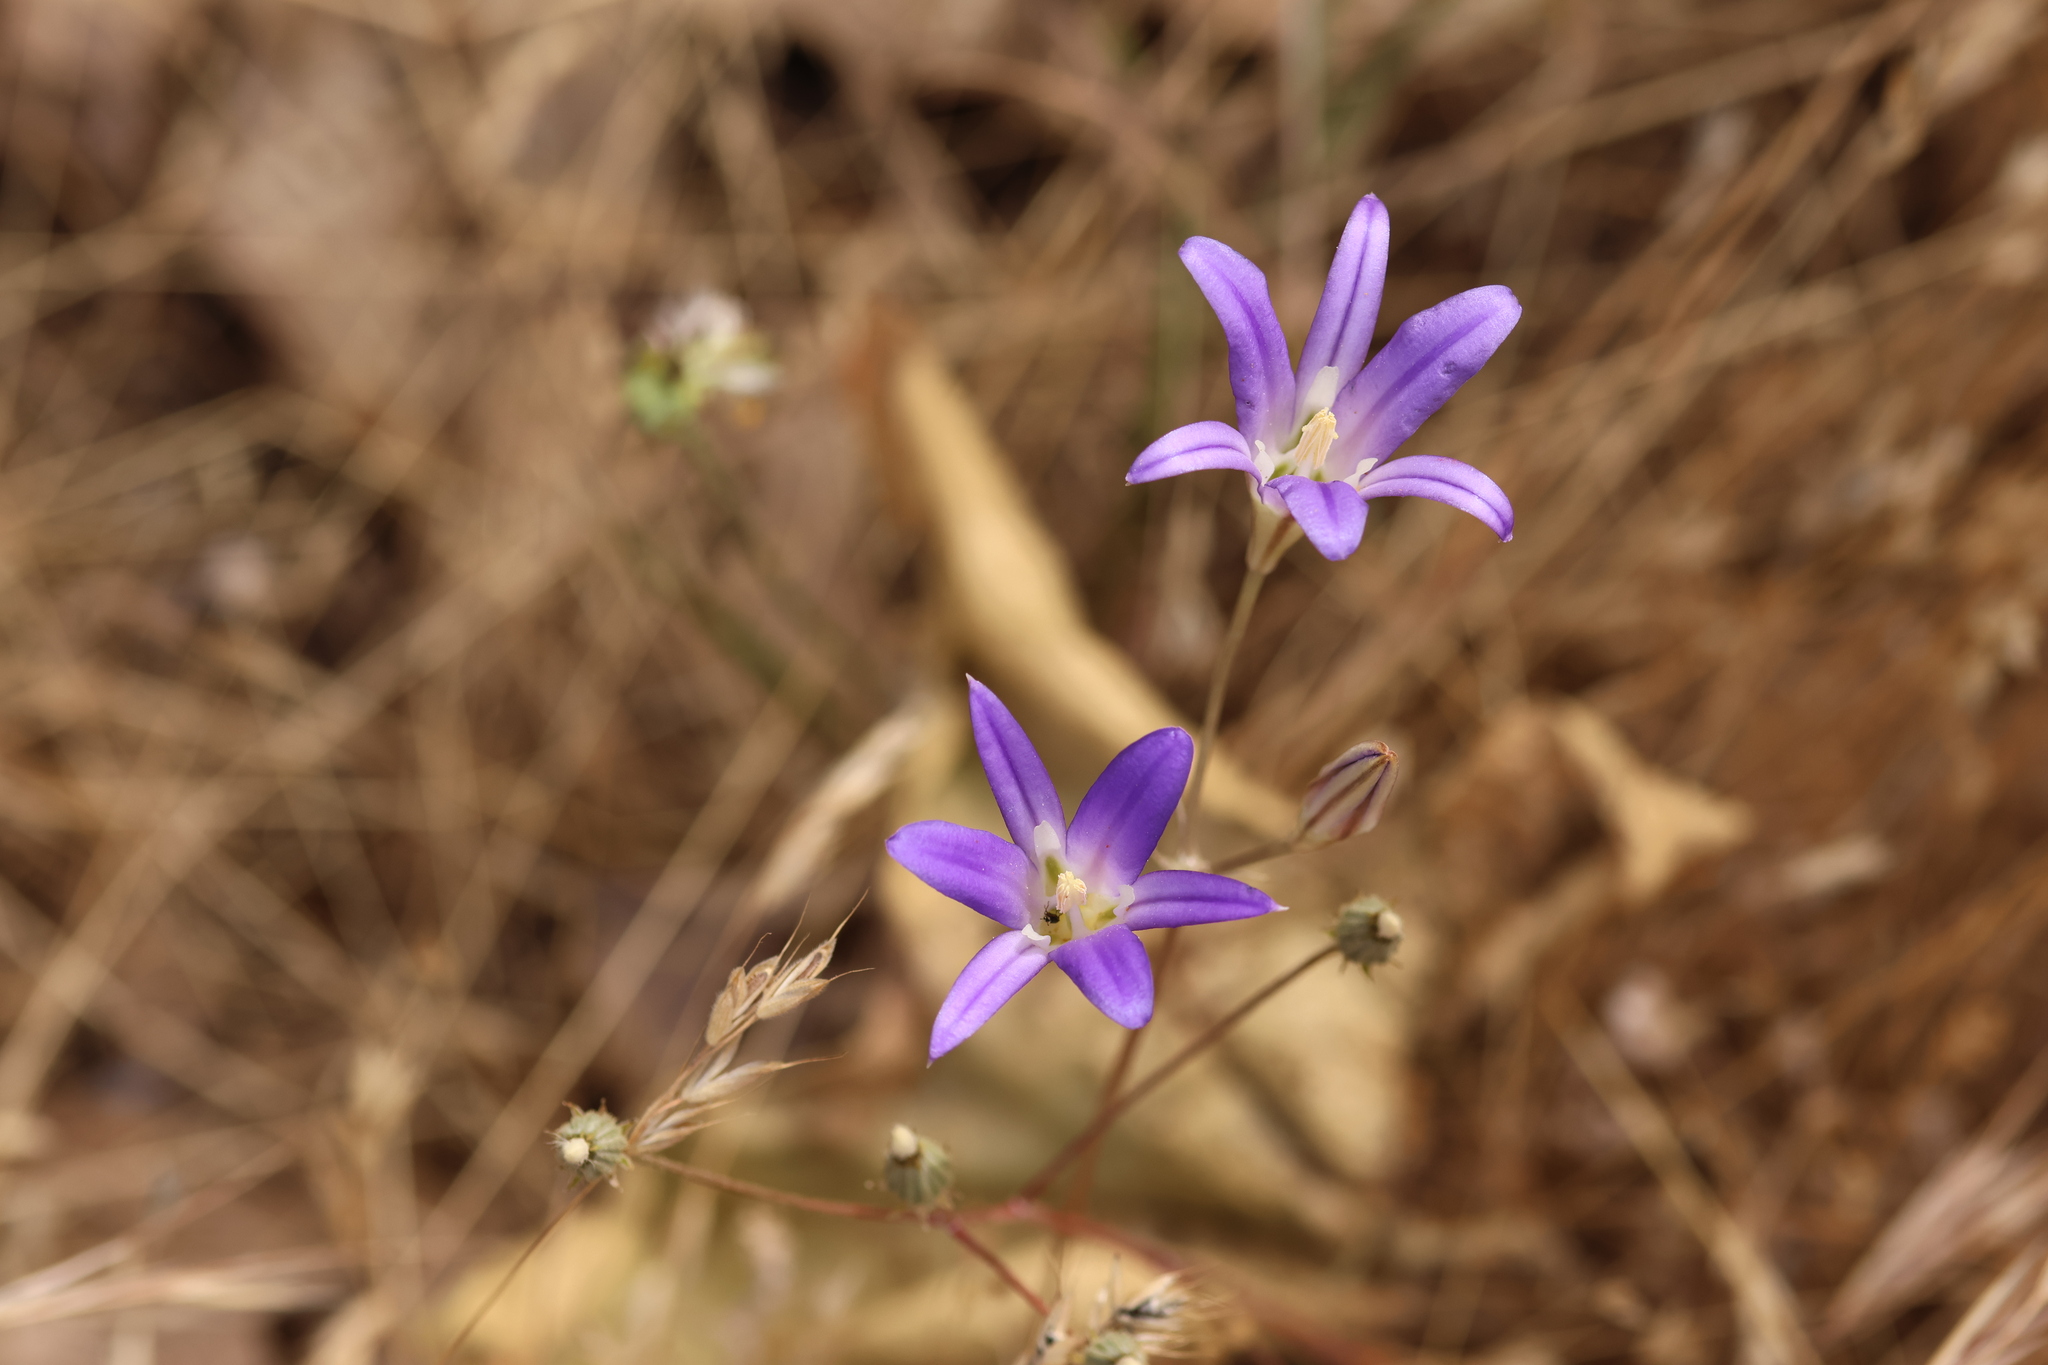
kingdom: Plantae
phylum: Tracheophyta
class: Liliopsida
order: Asparagales
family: Asparagaceae
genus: Brodiaea
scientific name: Brodiaea elegans
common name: Elegant cluster-lily
